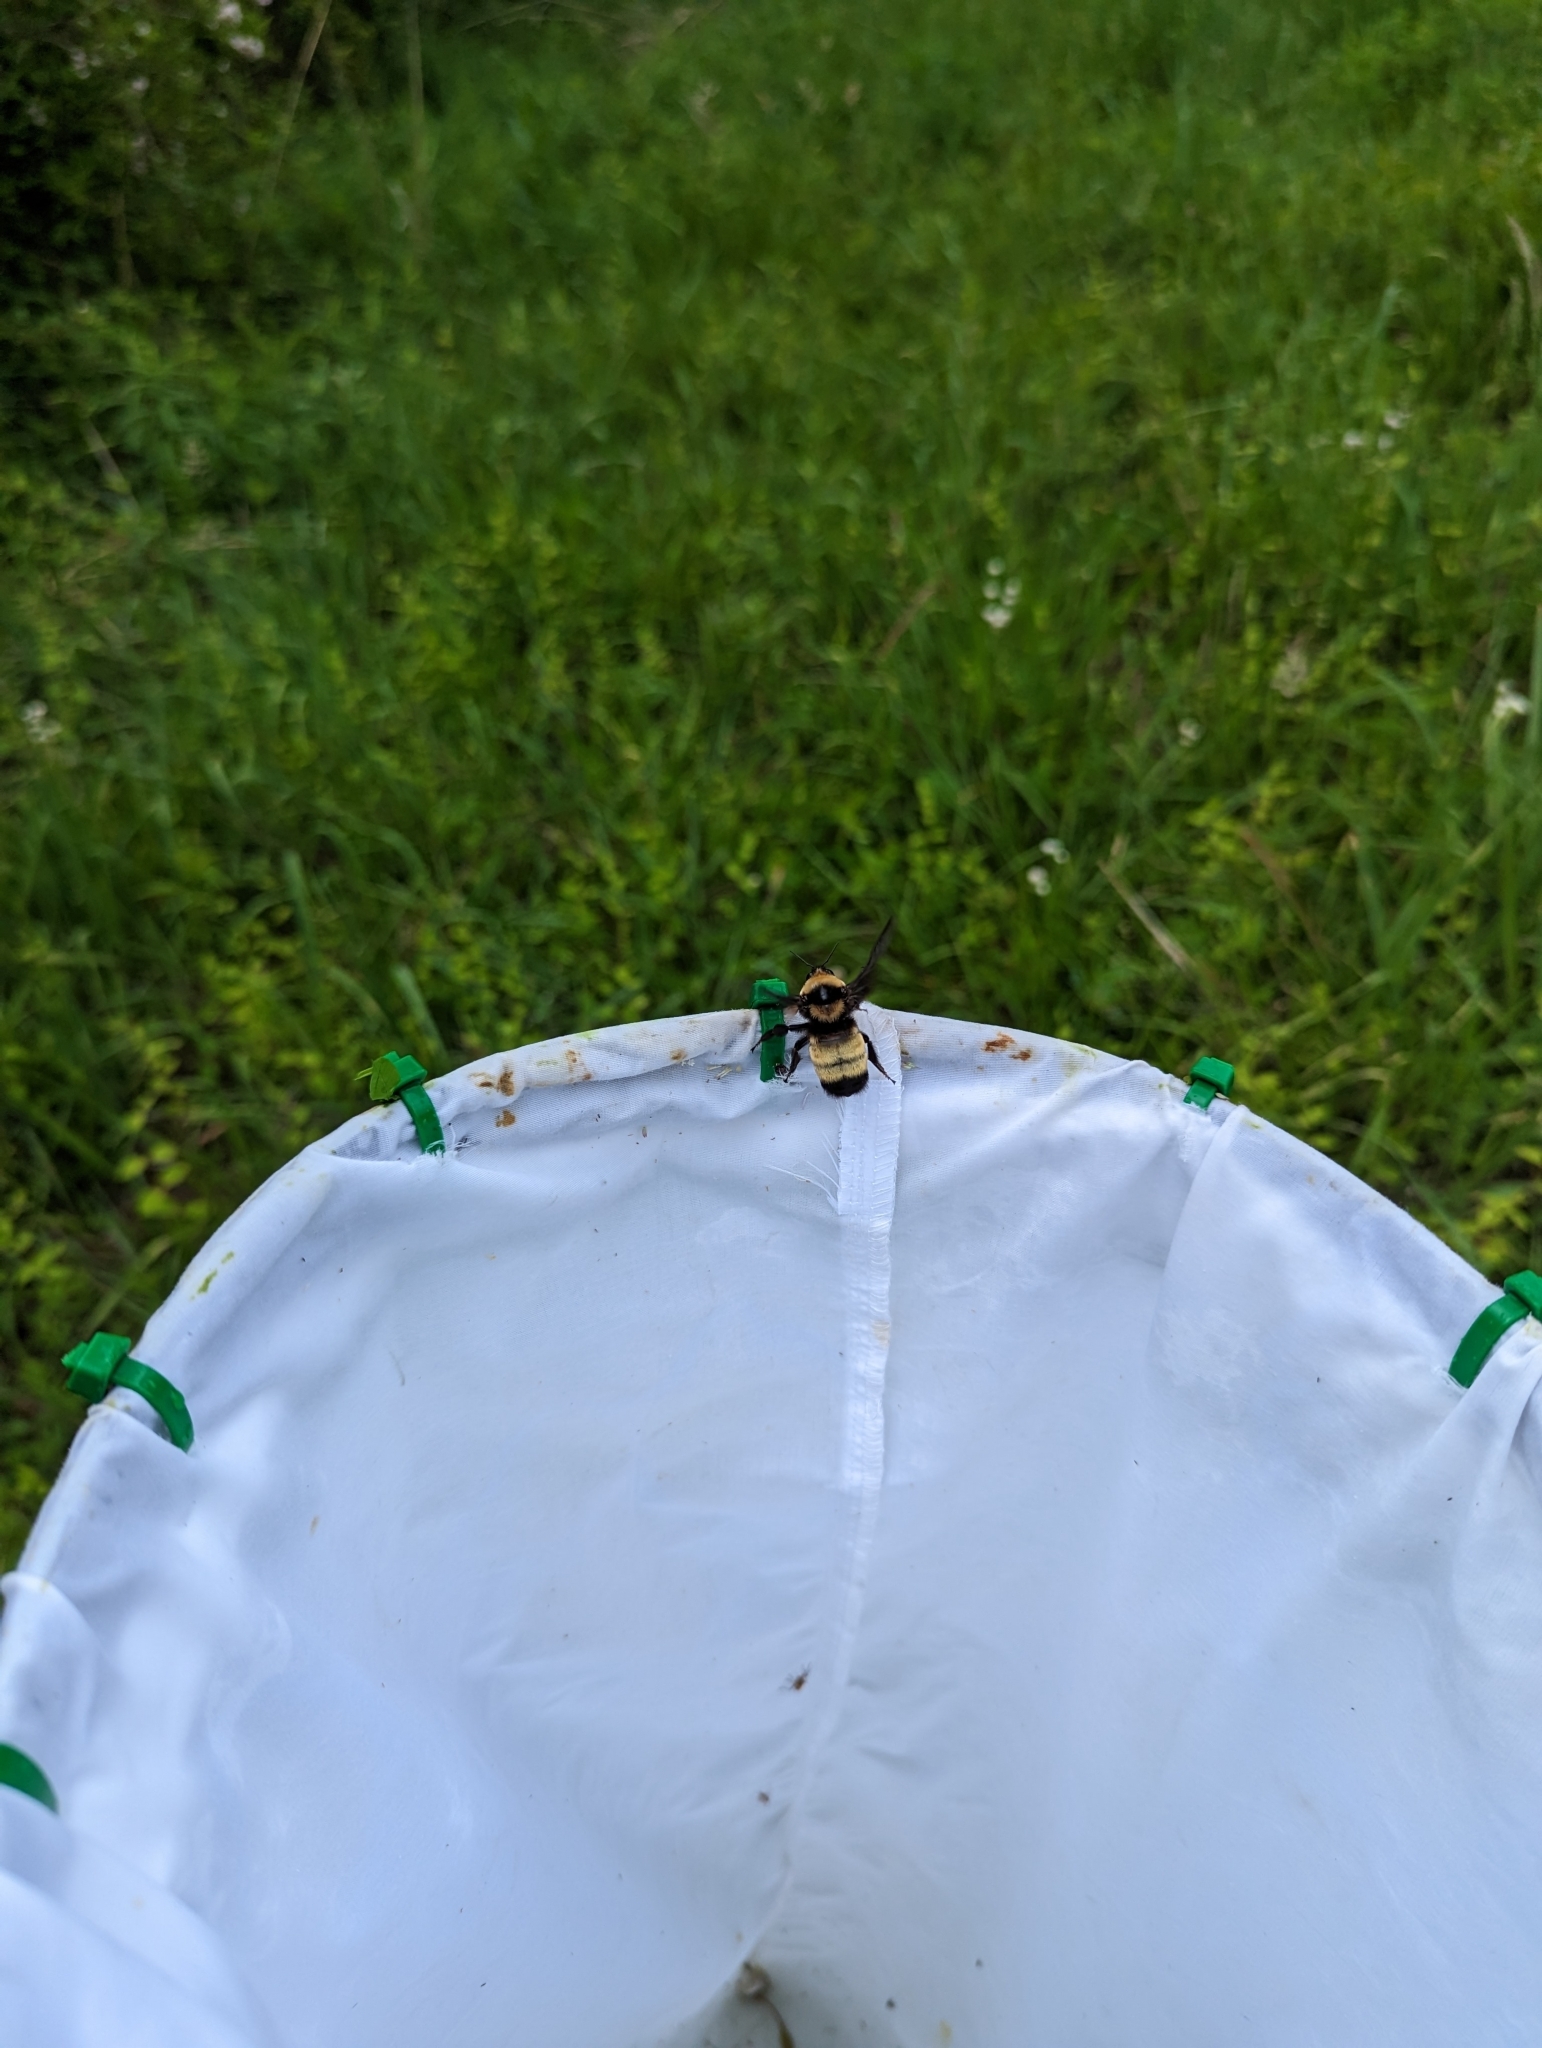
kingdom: Animalia
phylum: Arthropoda
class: Insecta
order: Hymenoptera
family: Apidae
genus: Bombus
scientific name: Bombus auricomus
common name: Black and gold bumble bee
